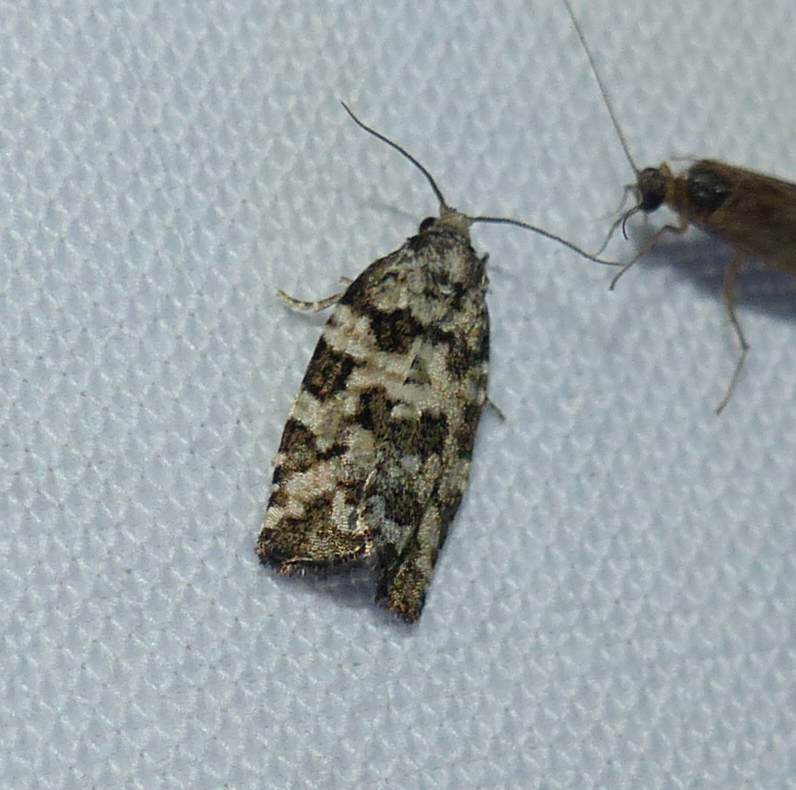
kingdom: Animalia
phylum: Arthropoda
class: Insecta
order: Lepidoptera
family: Tortricidae
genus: Archips
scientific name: Archips packardiana
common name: Spring spruce needle moth
